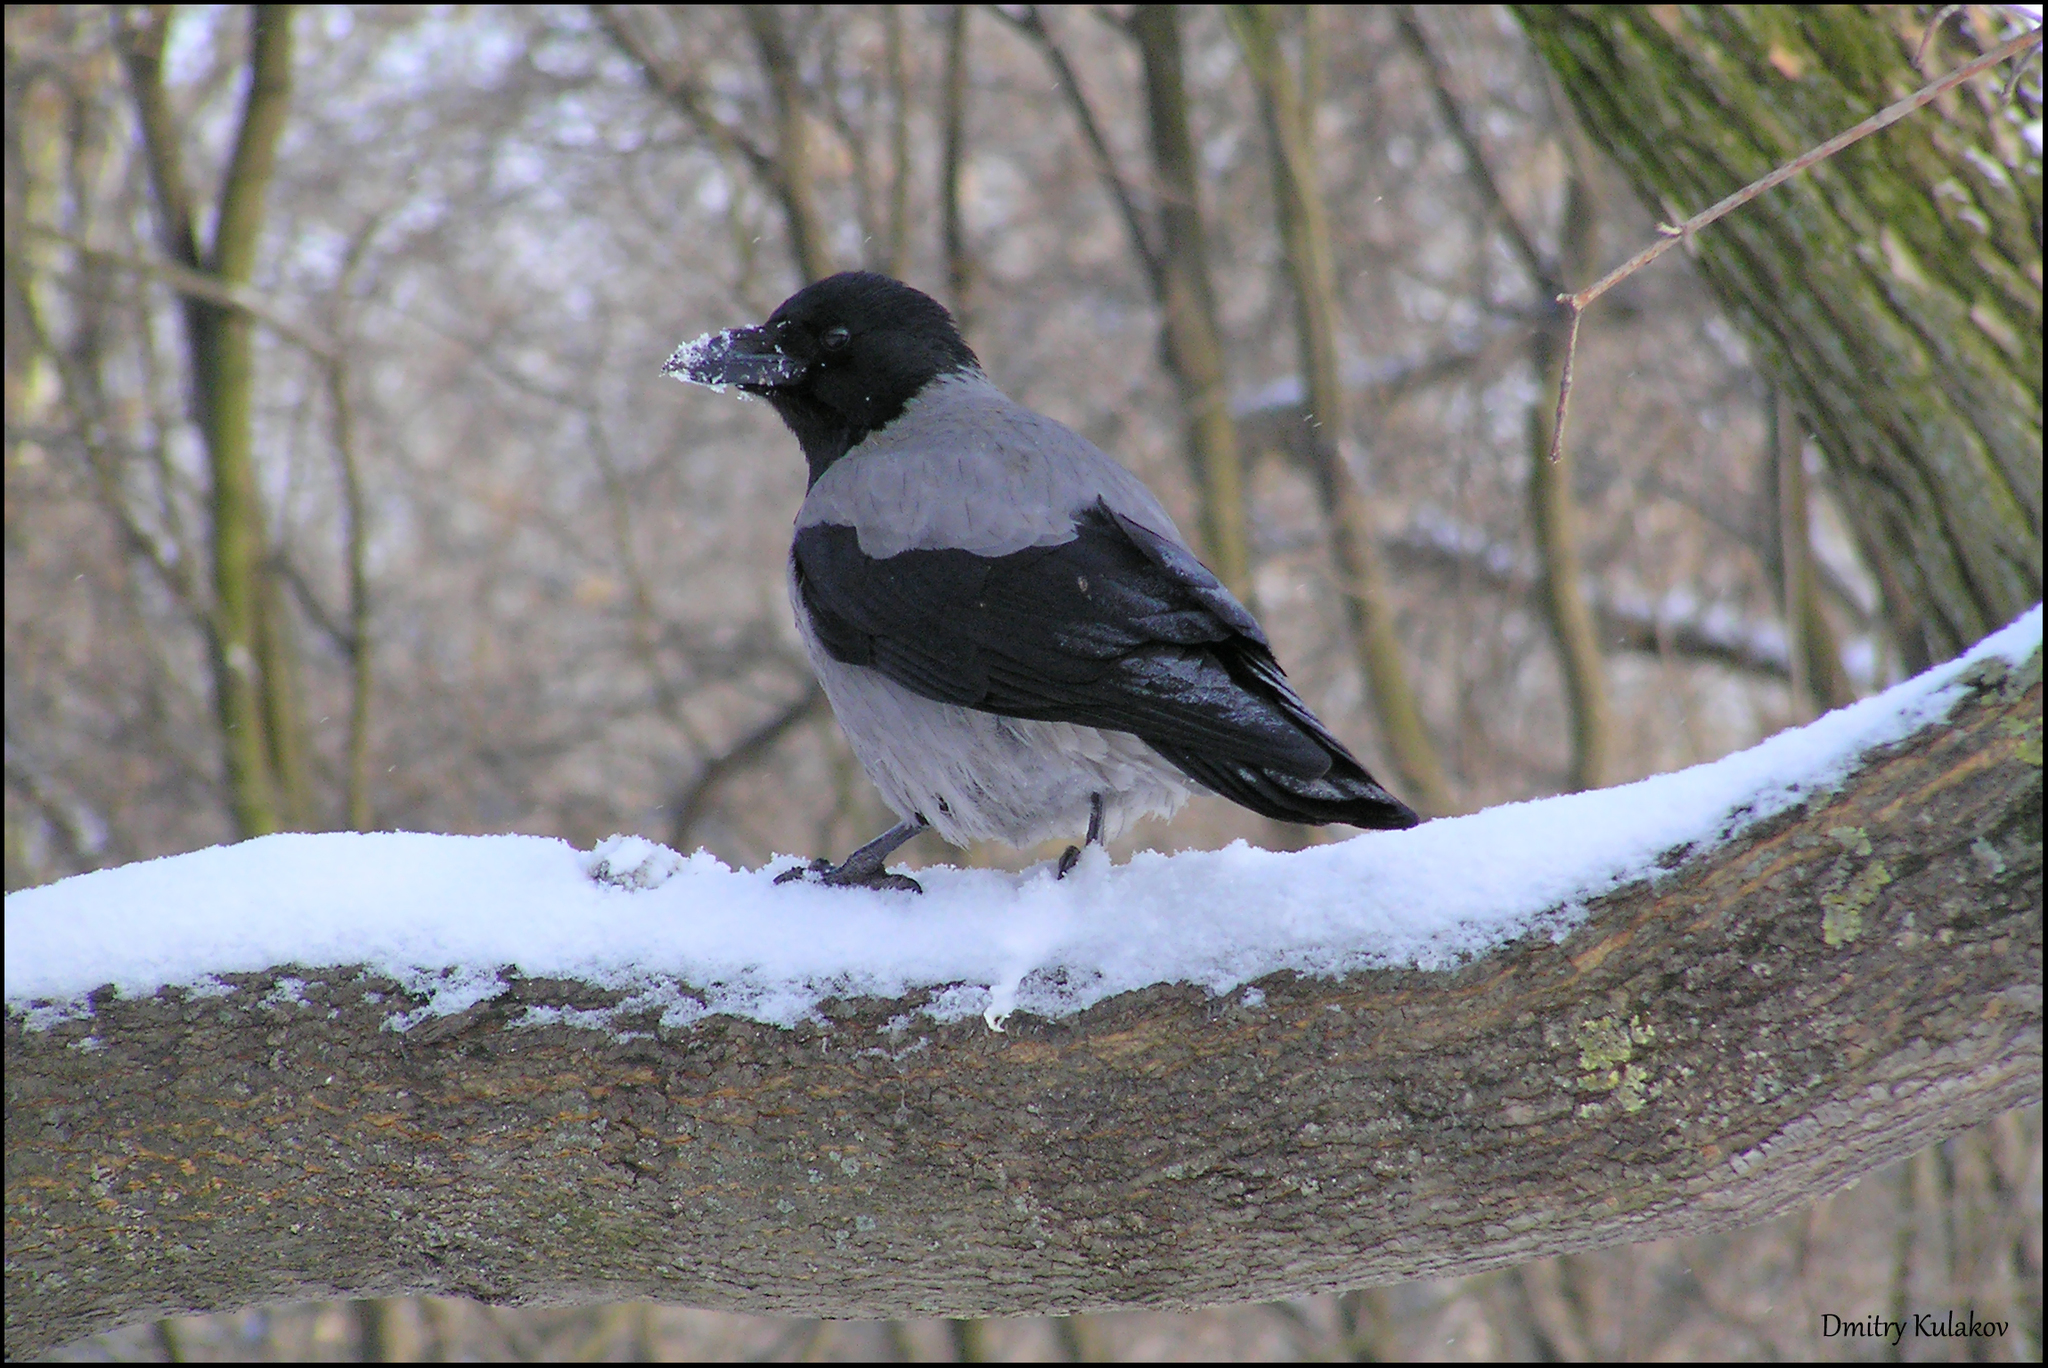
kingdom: Animalia
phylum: Chordata
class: Aves
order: Passeriformes
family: Corvidae
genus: Corvus
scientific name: Corvus cornix
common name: Hooded crow
